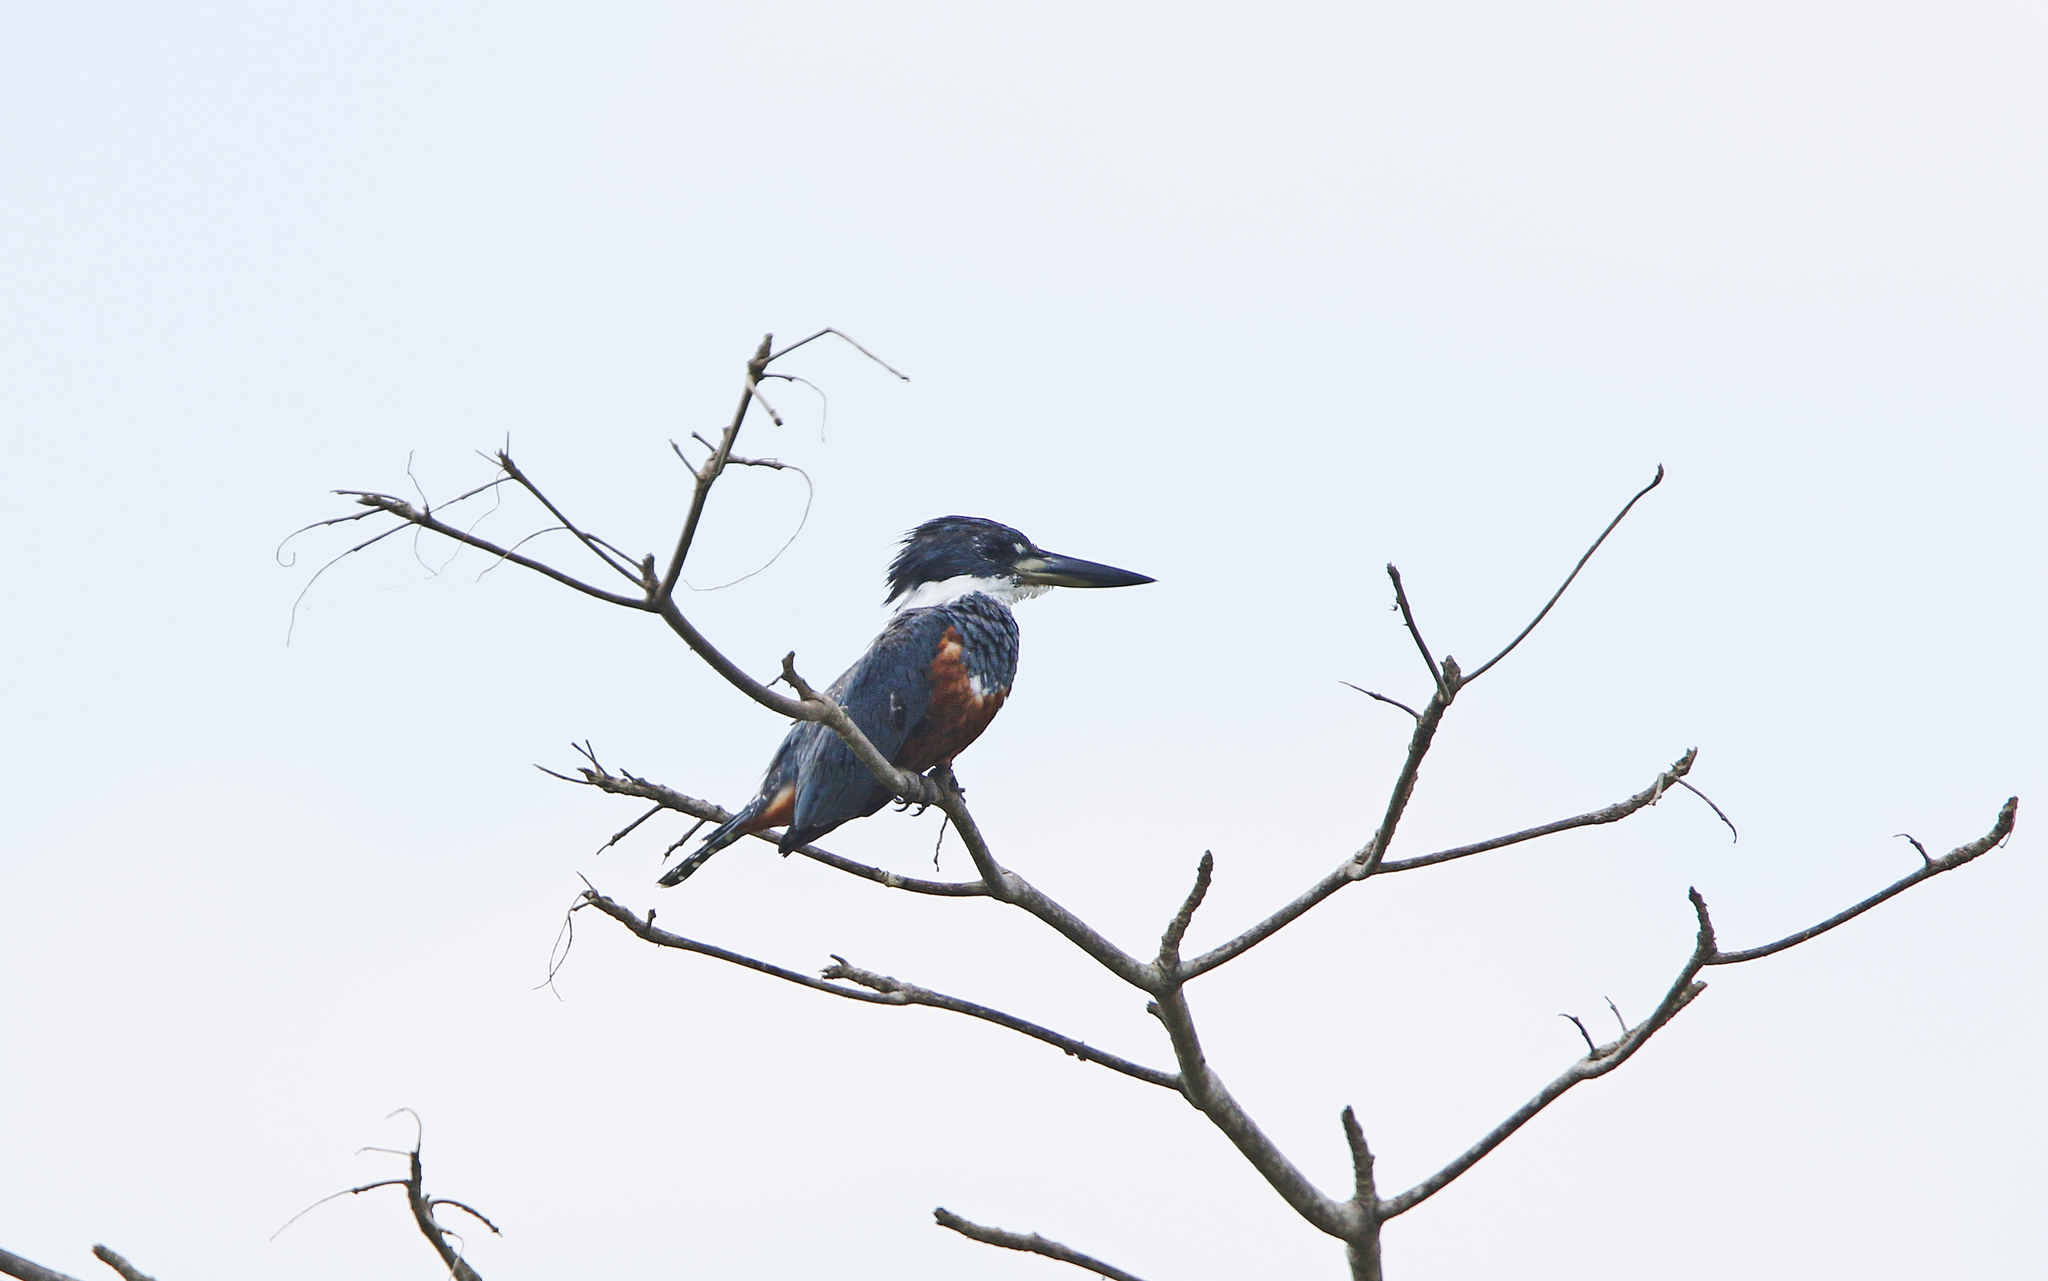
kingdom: Animalia
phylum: Chordata
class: Aves
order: Coraciiformes
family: Alcedinidae
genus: Megaceryle
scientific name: Megaceryle torquata
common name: Ringed kingfisher
